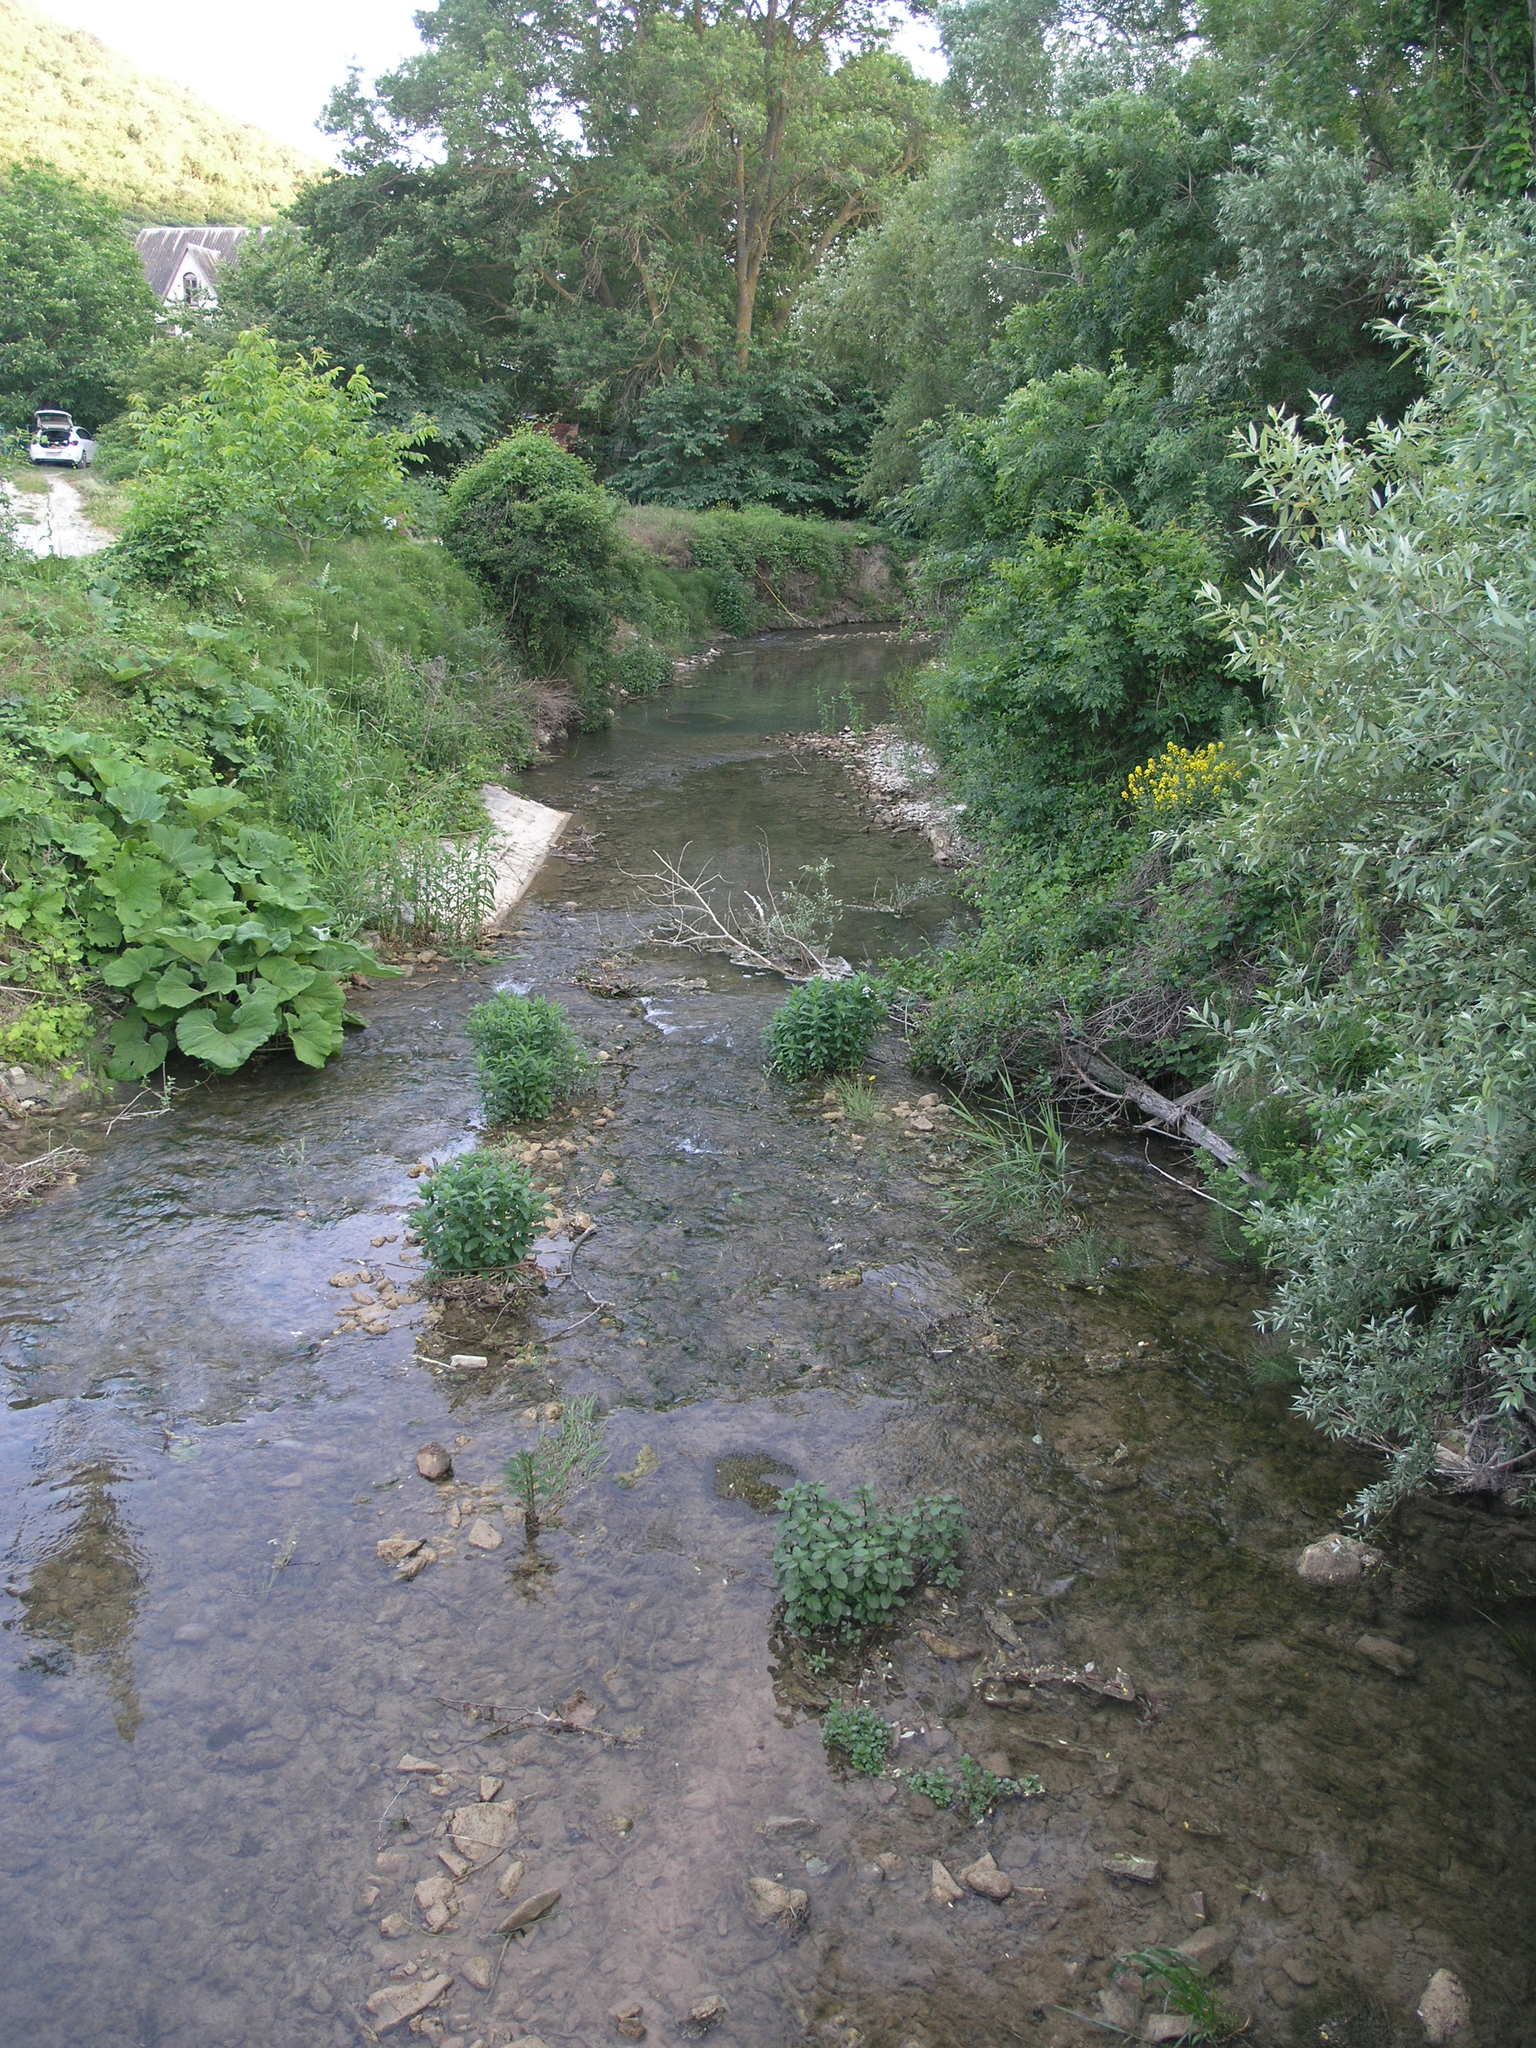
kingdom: Plantae
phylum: Tracheophyta
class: Magnoliopsida
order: Asterales
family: Asteraceae
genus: Petasites
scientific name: Petasites albus
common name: White butterbur
